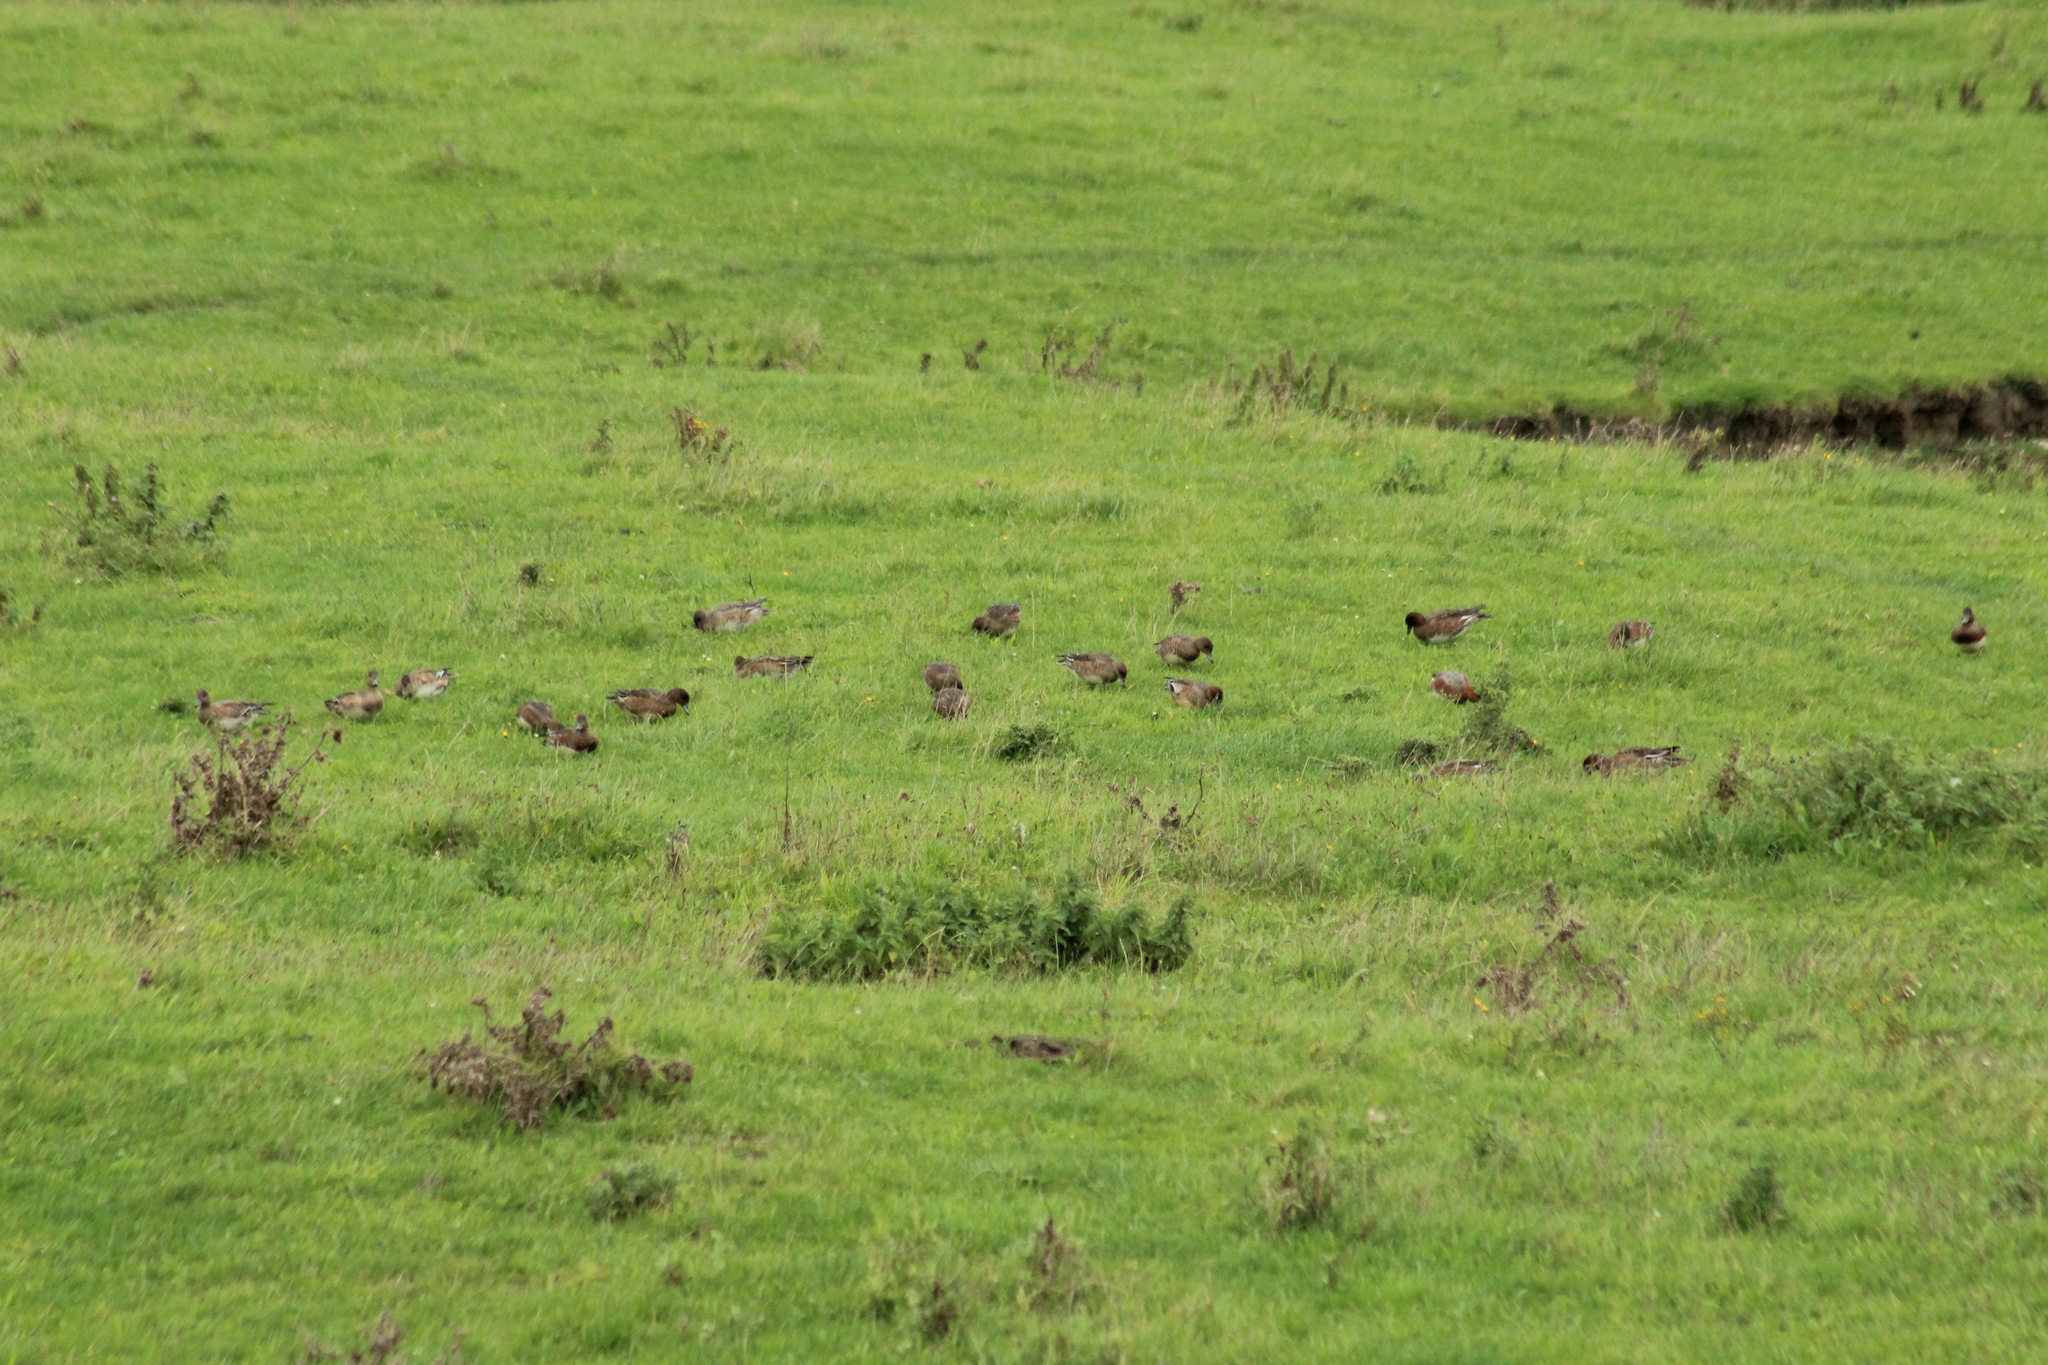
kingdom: Animalia
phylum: Chordata
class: Aves
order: Anseriformes
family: Anatidae
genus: Mareca
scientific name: Mareca penelope
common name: Eurasian wigeon
